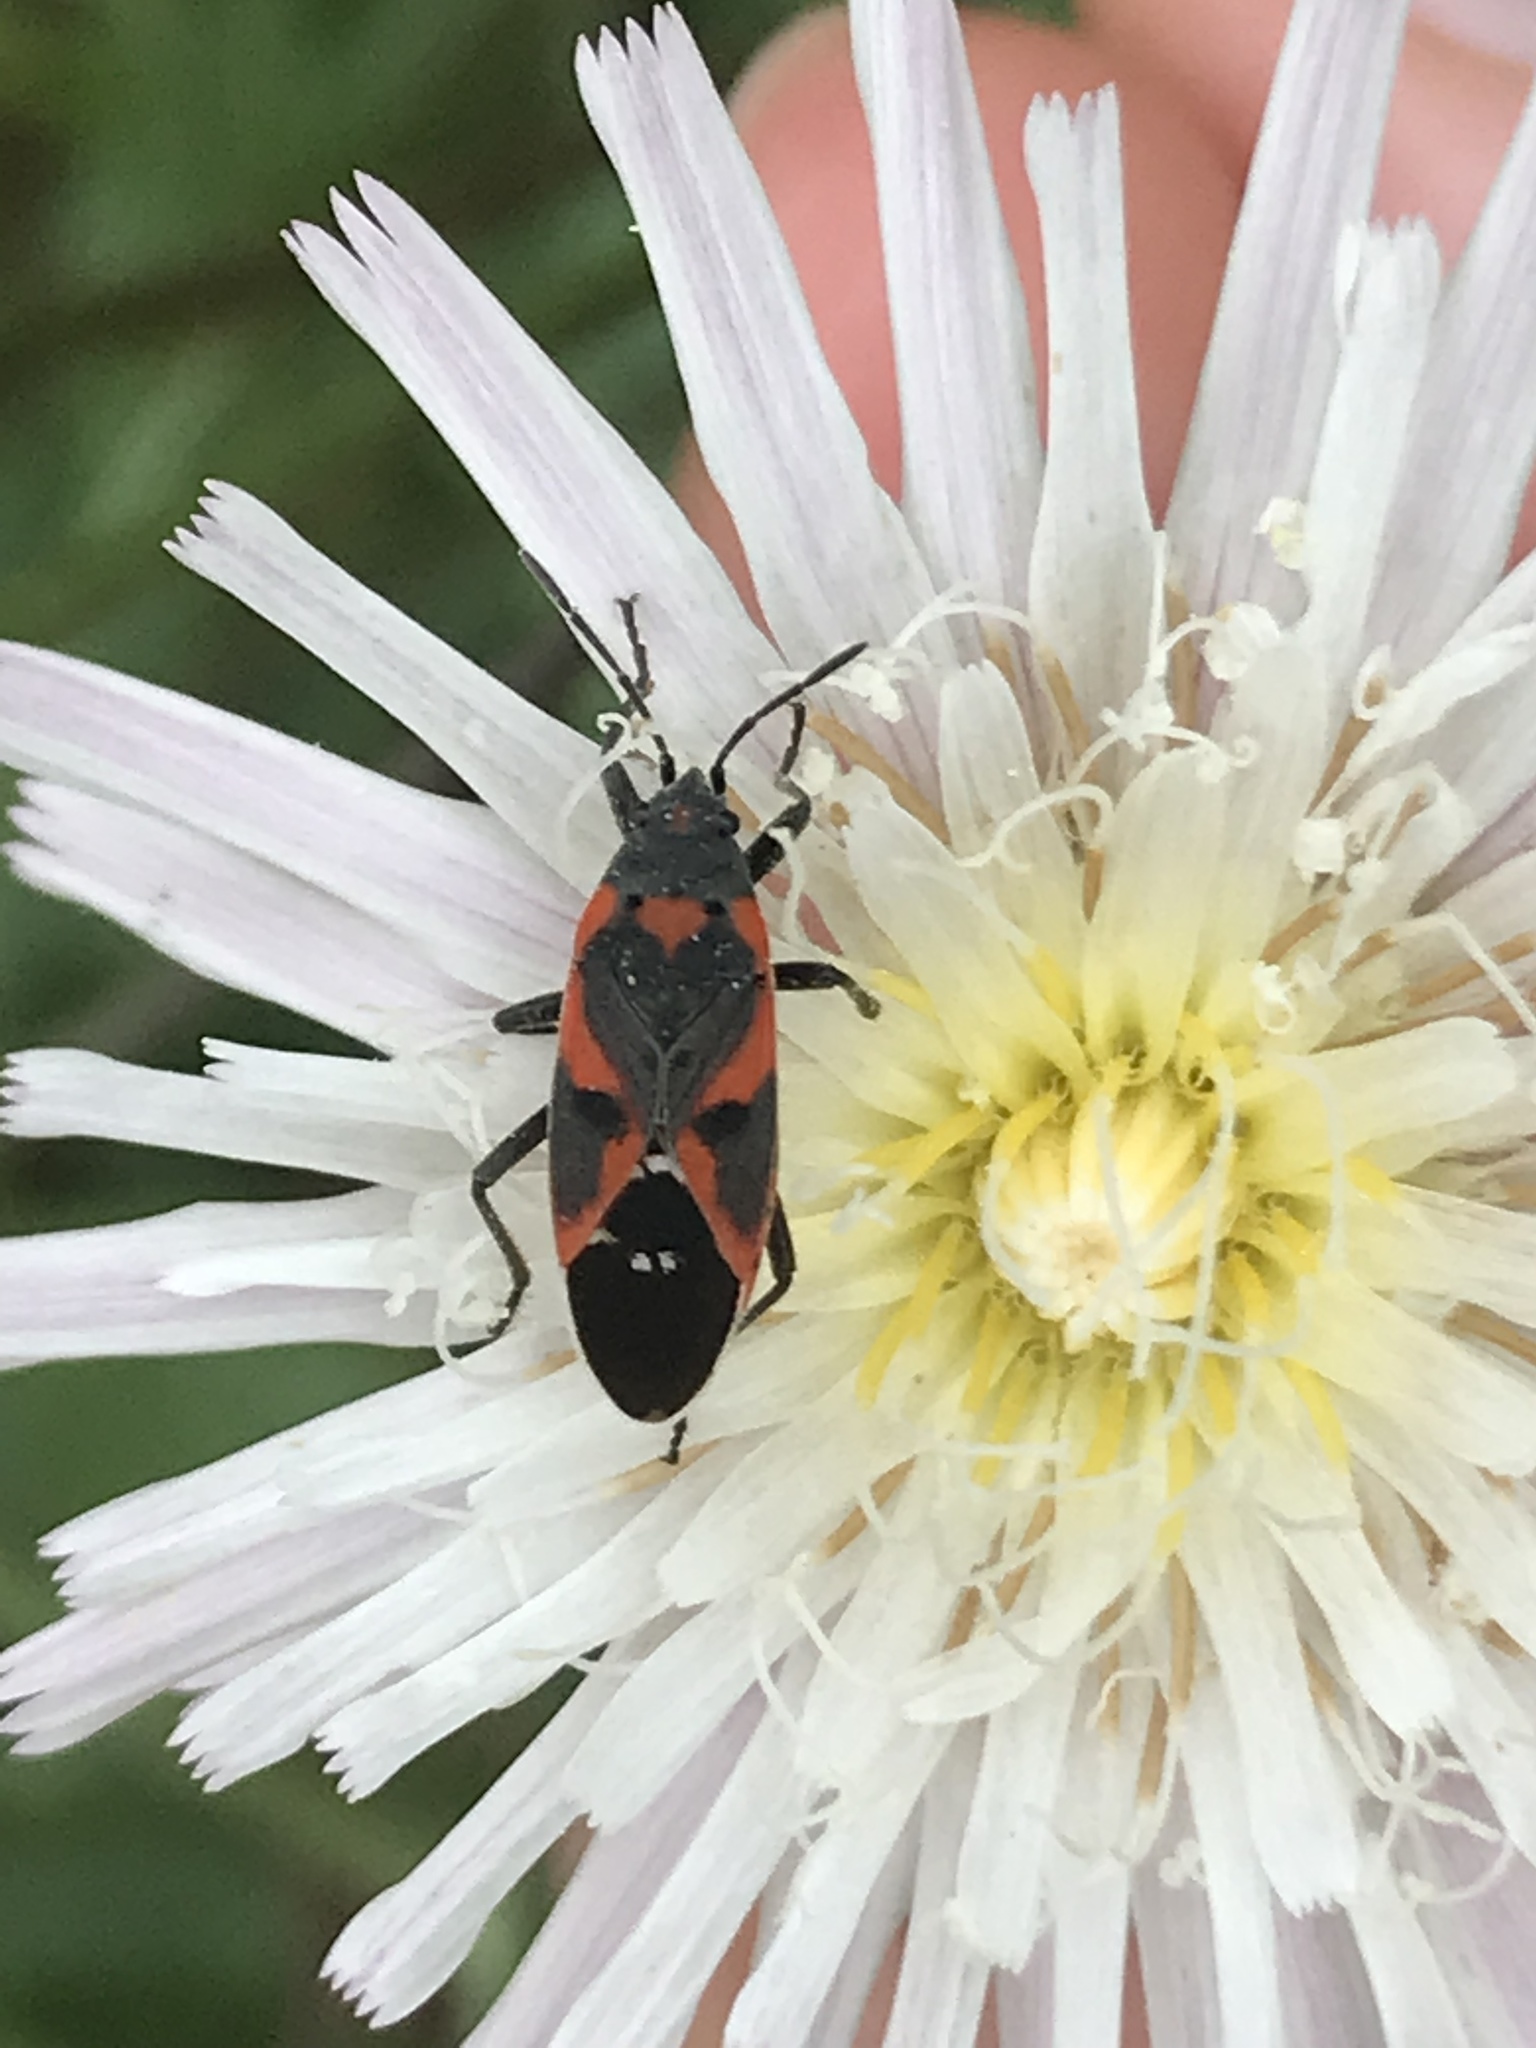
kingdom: Animalia
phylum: Arthropoda
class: Insecta
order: Hemiptera
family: Lygaeidae
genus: Lygaeus
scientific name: Lygaeus kalmii
